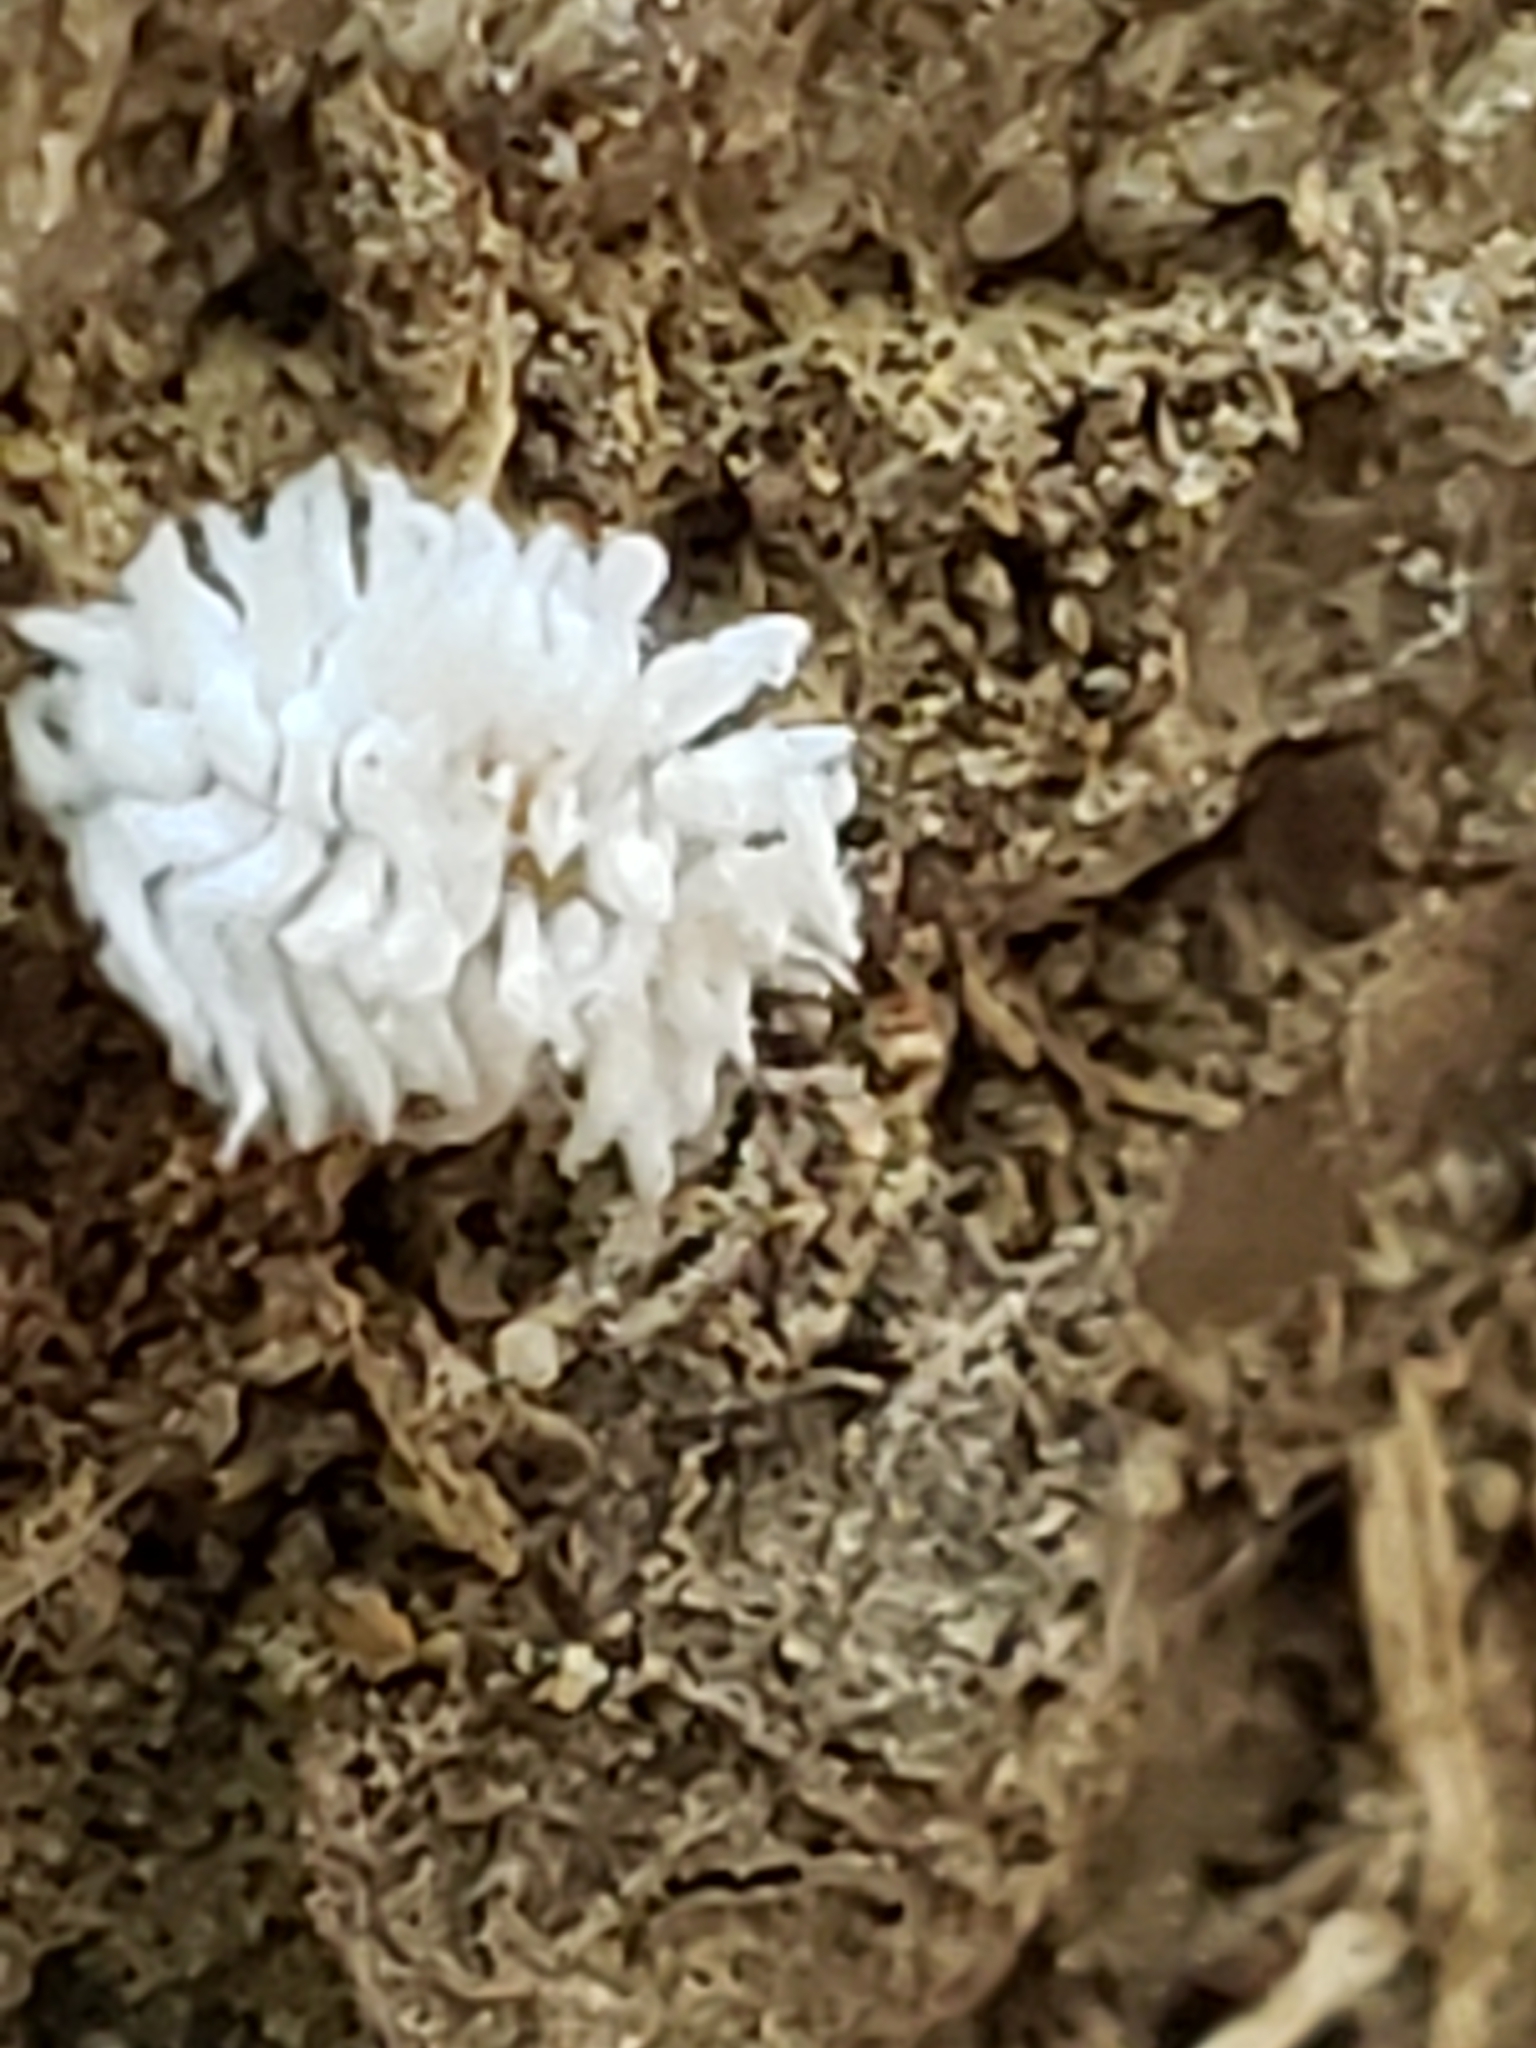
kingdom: Animalia
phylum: Arthropoda
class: Insecta
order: Coleoptera
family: Coccinellidae
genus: Cryptolaemus
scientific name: Cryptolaemus montrouzieri
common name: Mealybug destroyer
